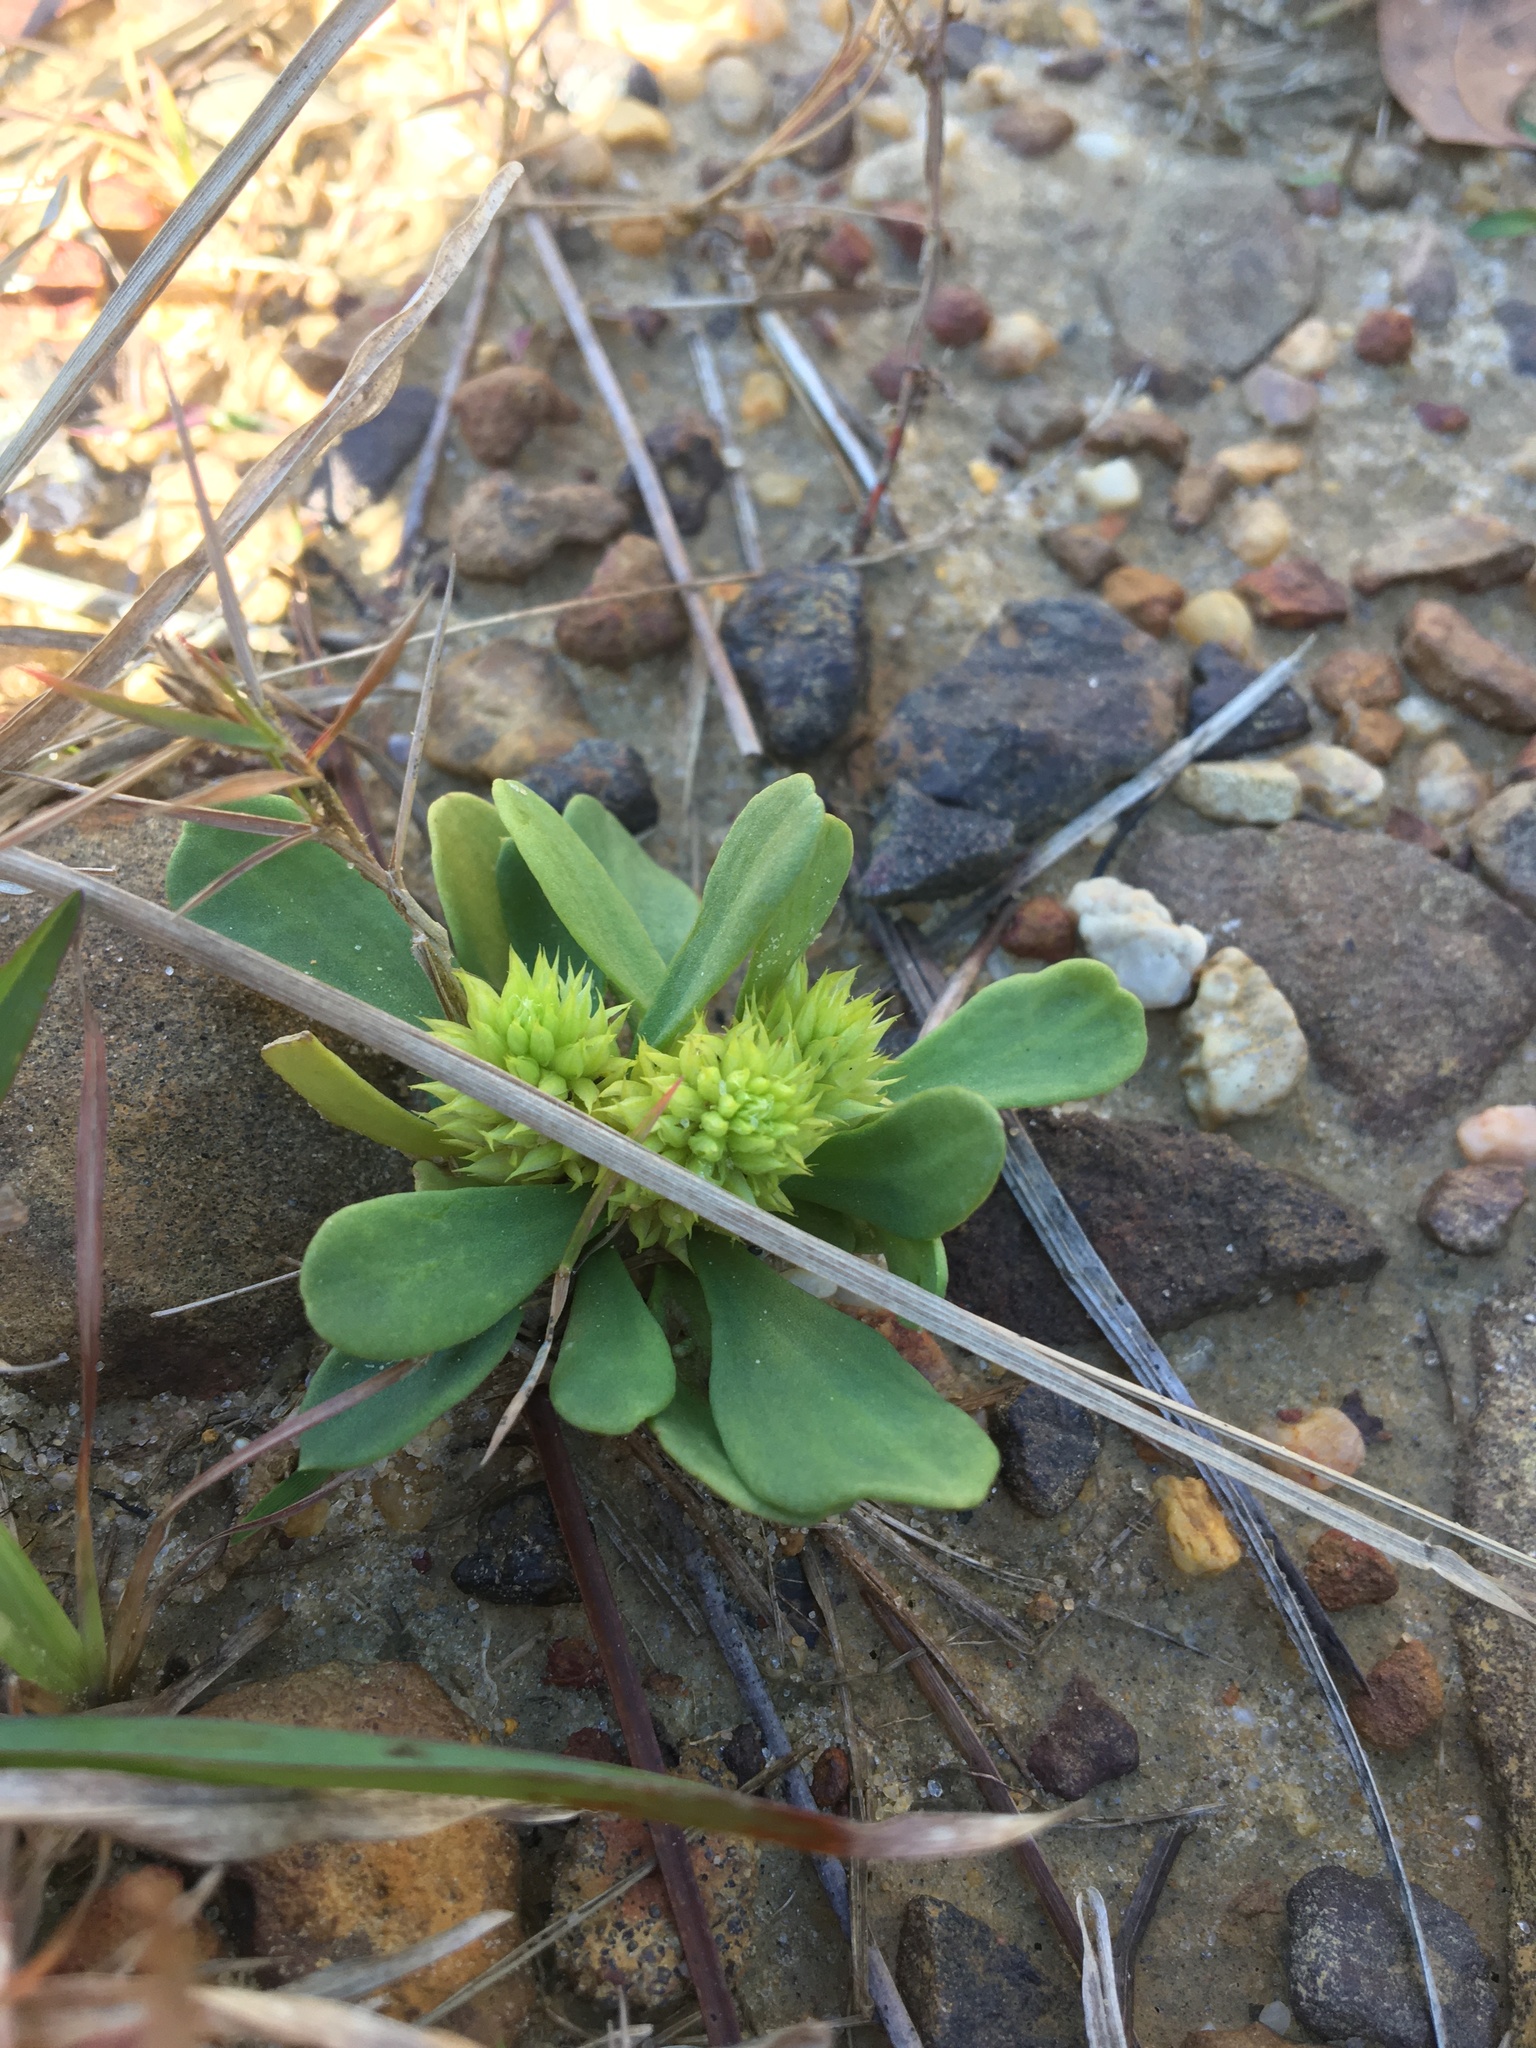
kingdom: Plantae
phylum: Tracheophyta
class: Magnoliopsida
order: Fabales
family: Polygalaceae
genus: Polygala
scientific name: Polygala nana
